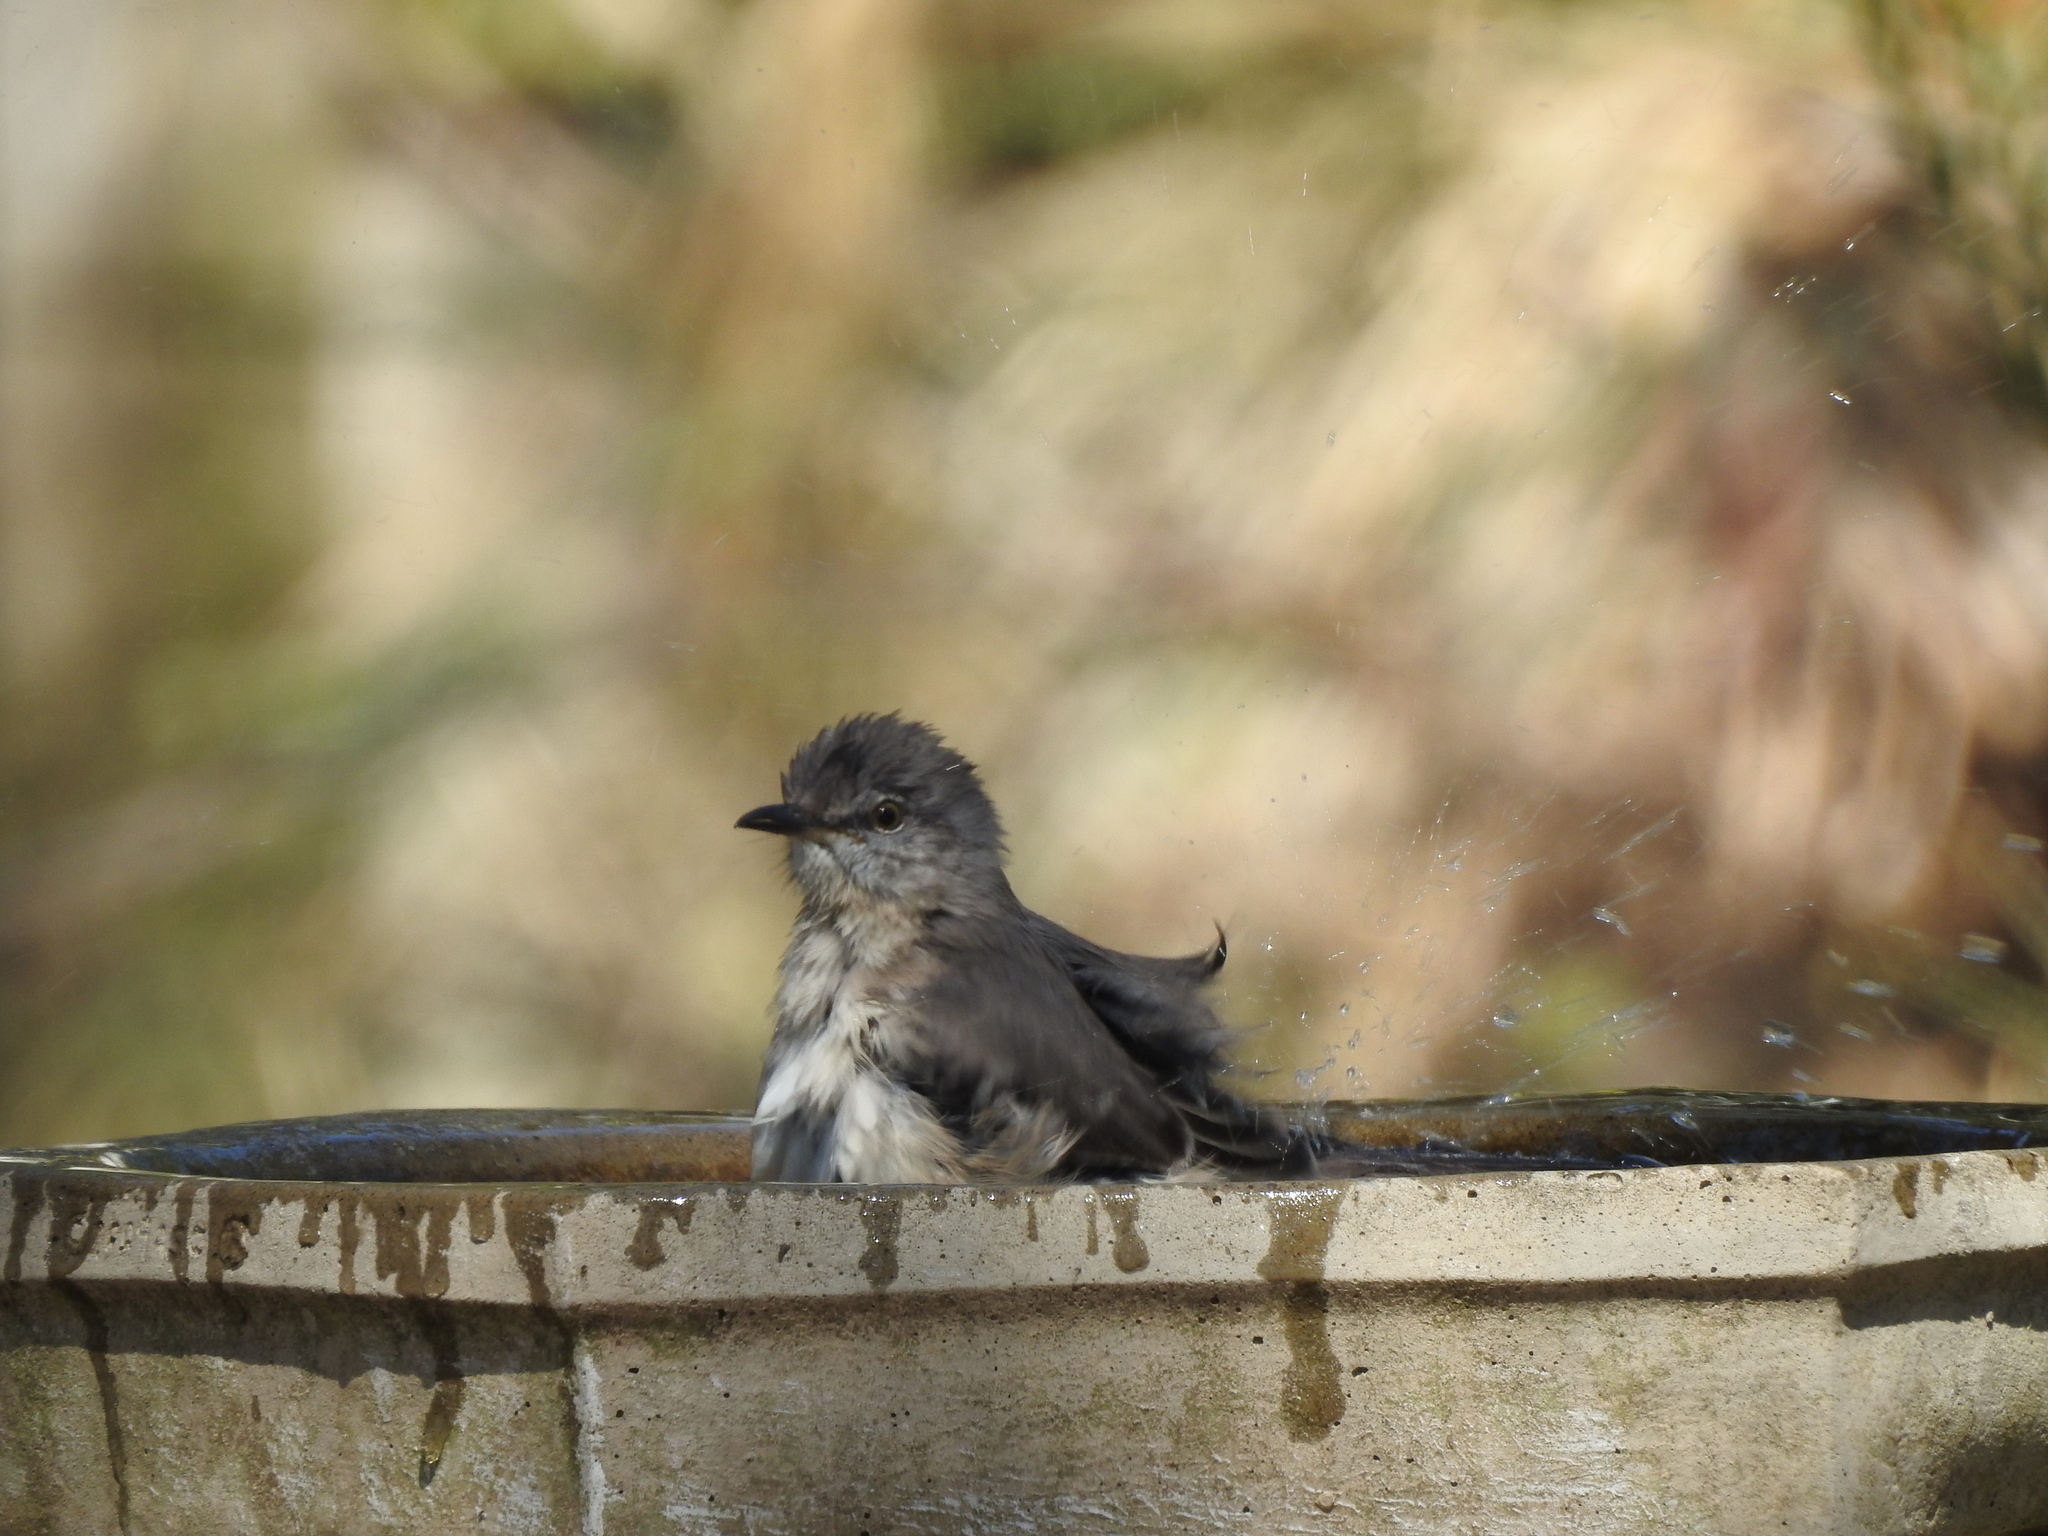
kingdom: Animalia
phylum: Chordata
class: Aves
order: Passeriformes
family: Mimidae
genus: Mimus
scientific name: Mimus polyglottos
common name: Northern mockingbird
